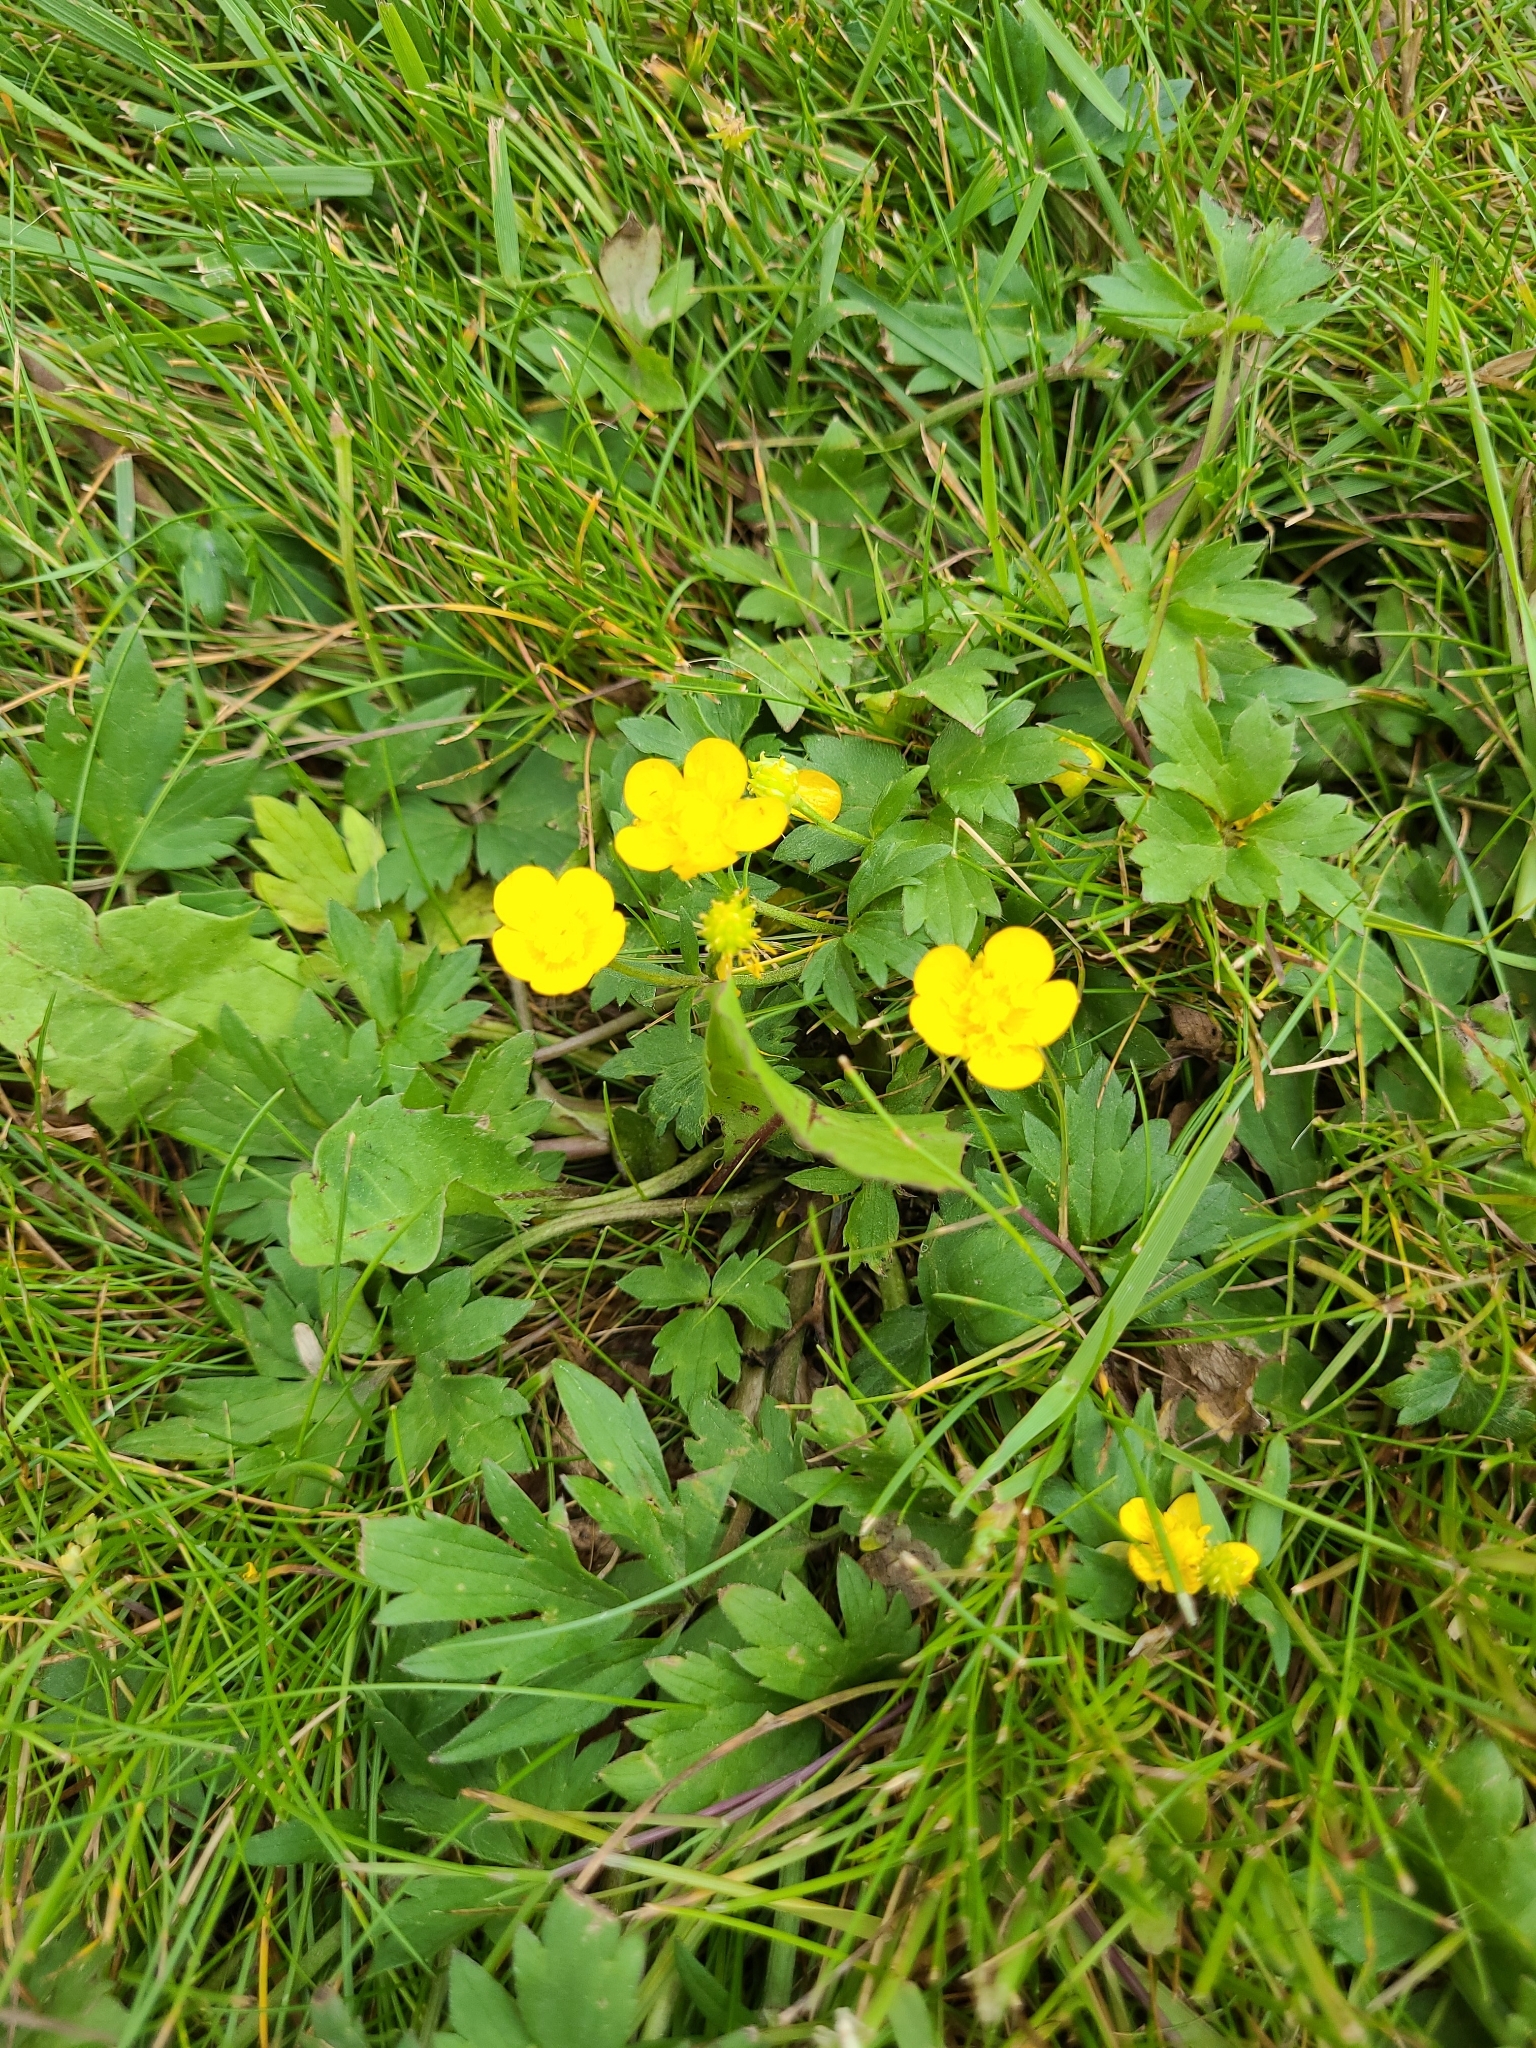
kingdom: Plantae
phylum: Tracheophyta
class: Magnoliopsida
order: Ranunculales
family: Ranunculaceae
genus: Ranunculus
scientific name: Ranunculus repens
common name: Creeping buttercup
